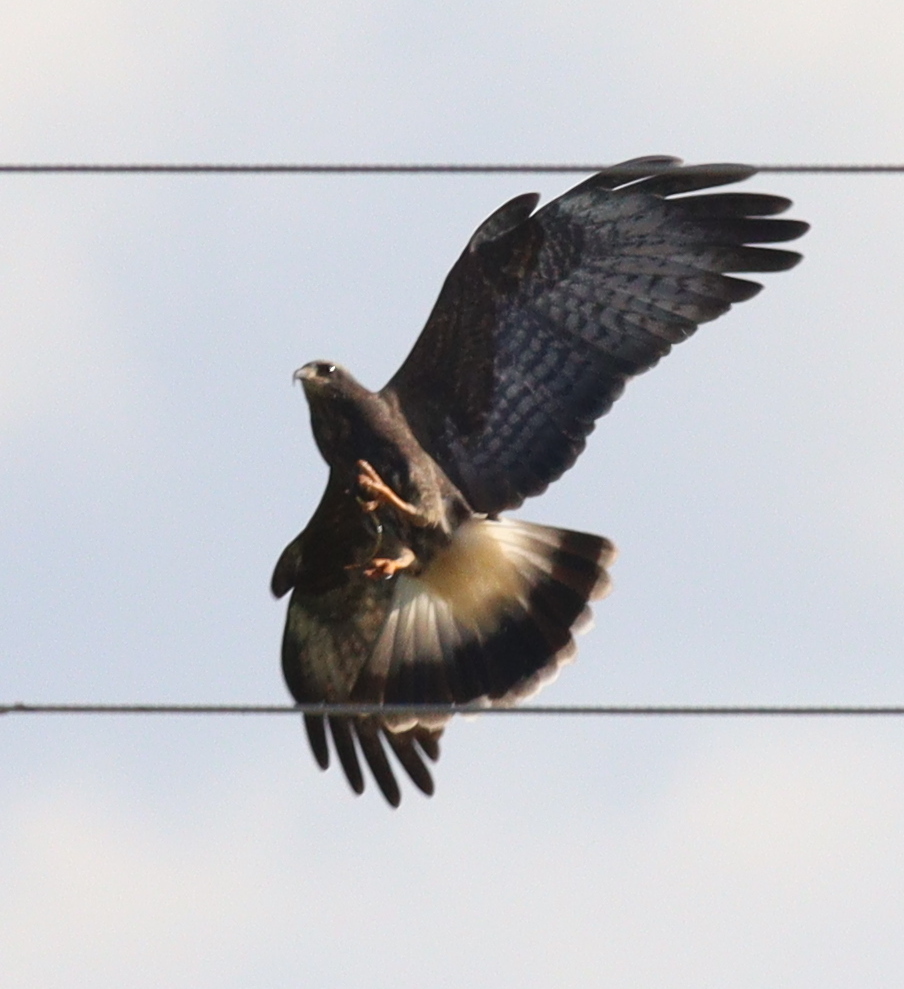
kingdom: Animalia
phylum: Chordata
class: Aves
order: Accipitriformes
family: Accipitridae
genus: Rostrhamus
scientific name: Rostrhamus sociabilis
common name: Snail kite
